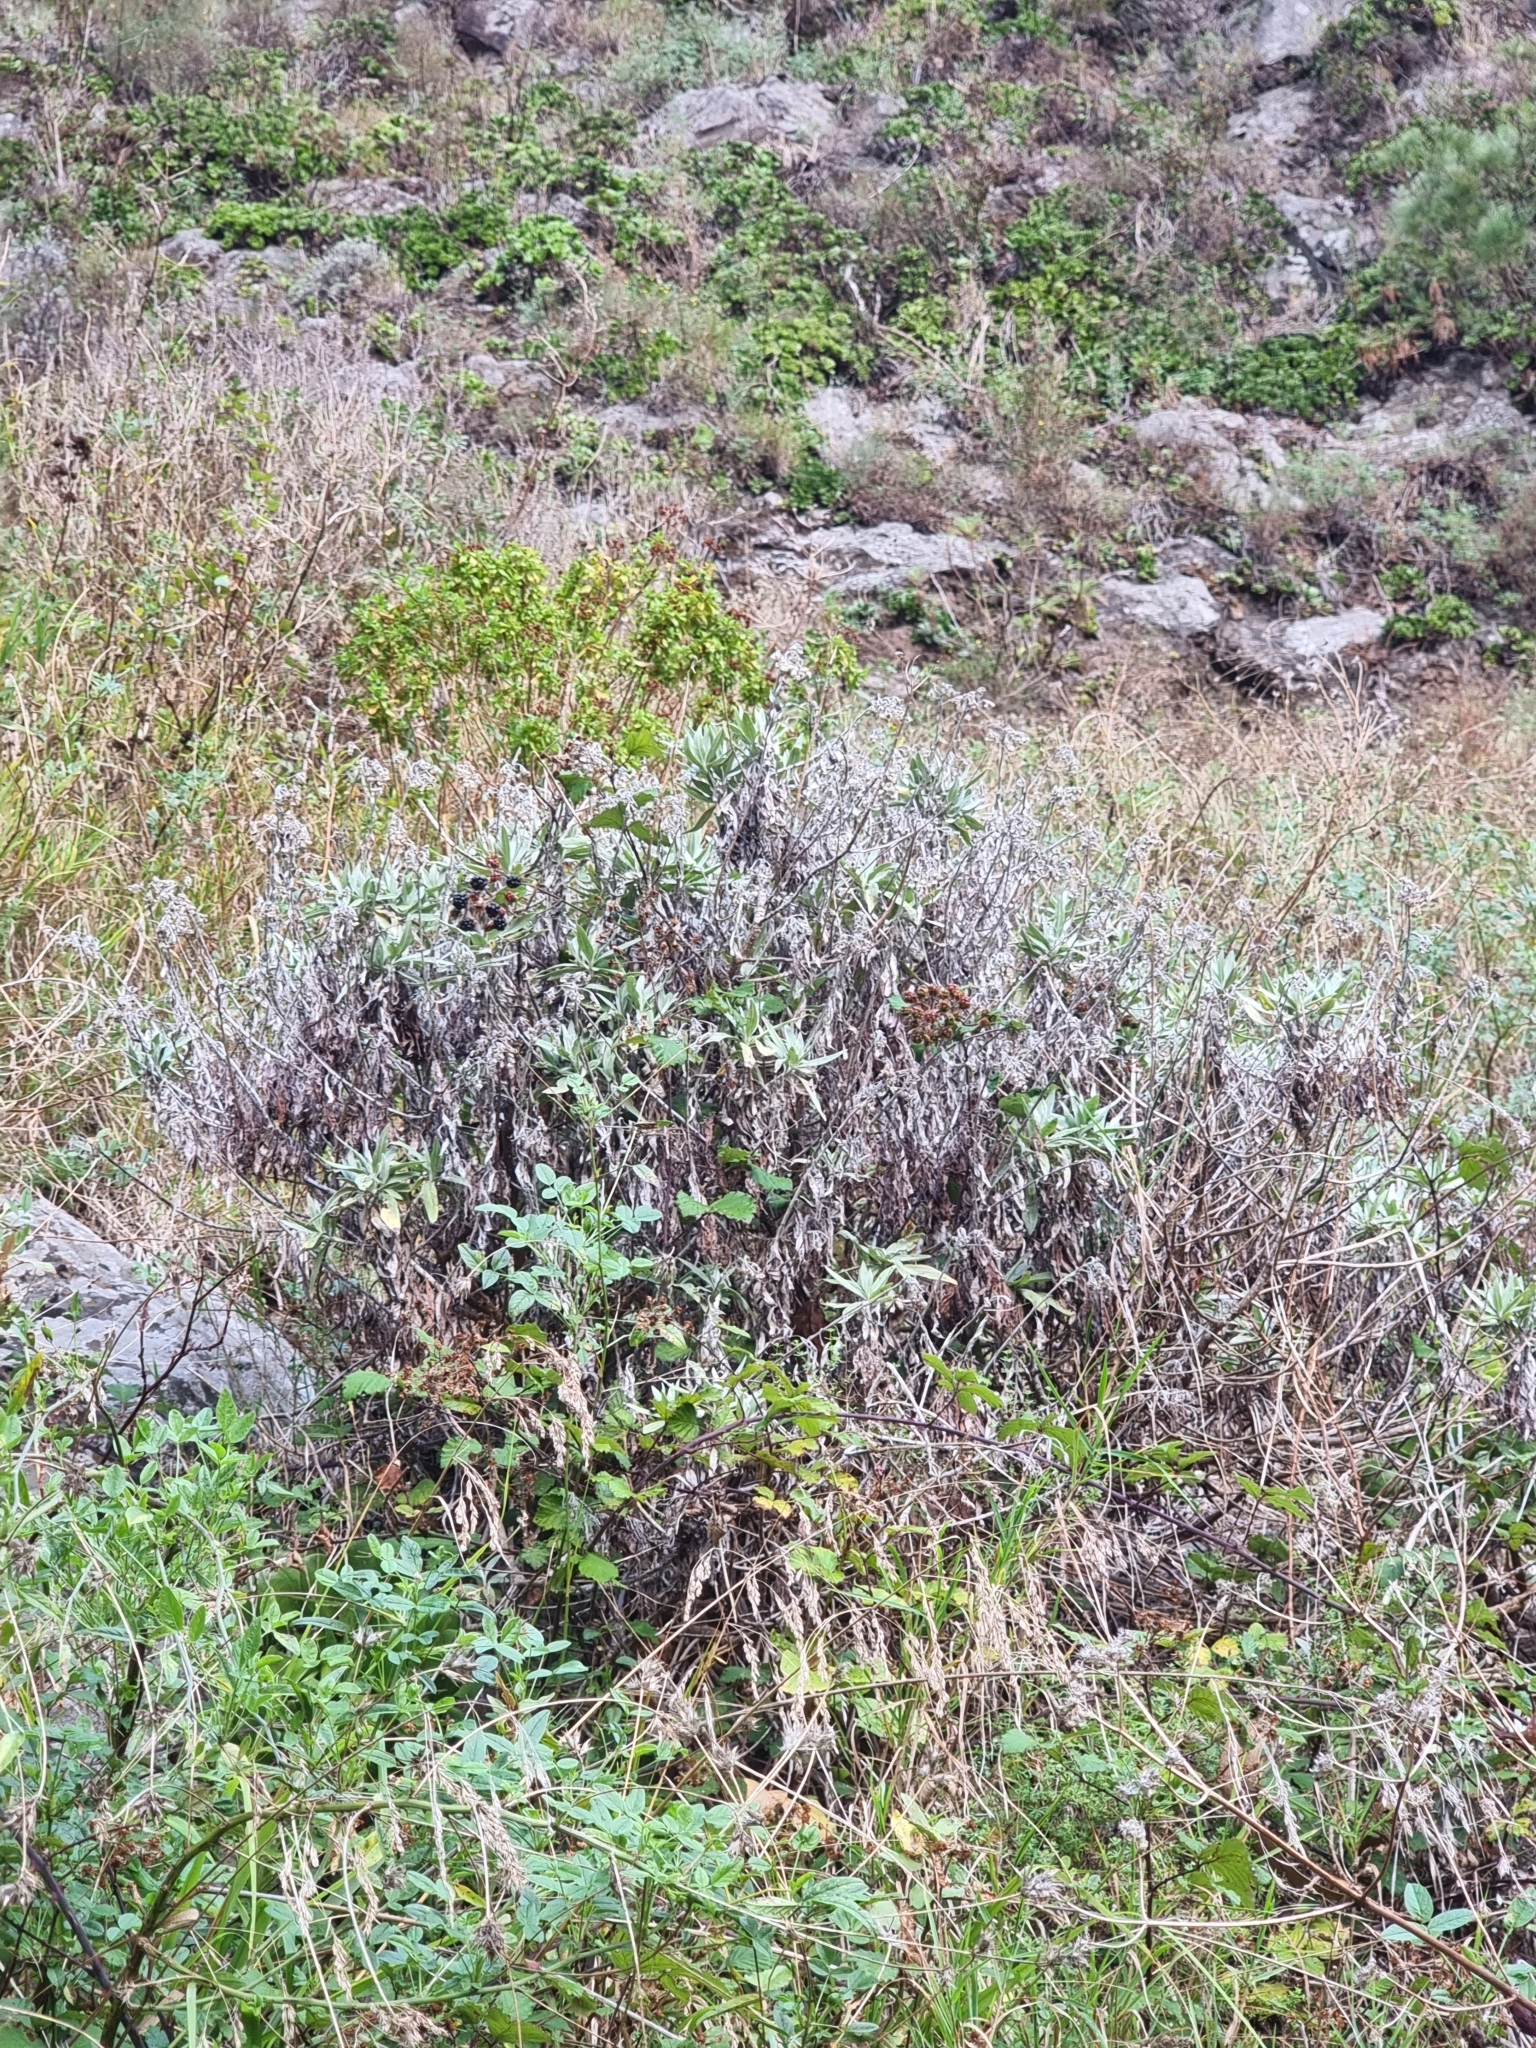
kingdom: Plantae
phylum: Tracheophyta
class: Magnoliopsida
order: Asterales
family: Asteraceae
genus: Helichrysum
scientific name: Helichrysum melaleucum
